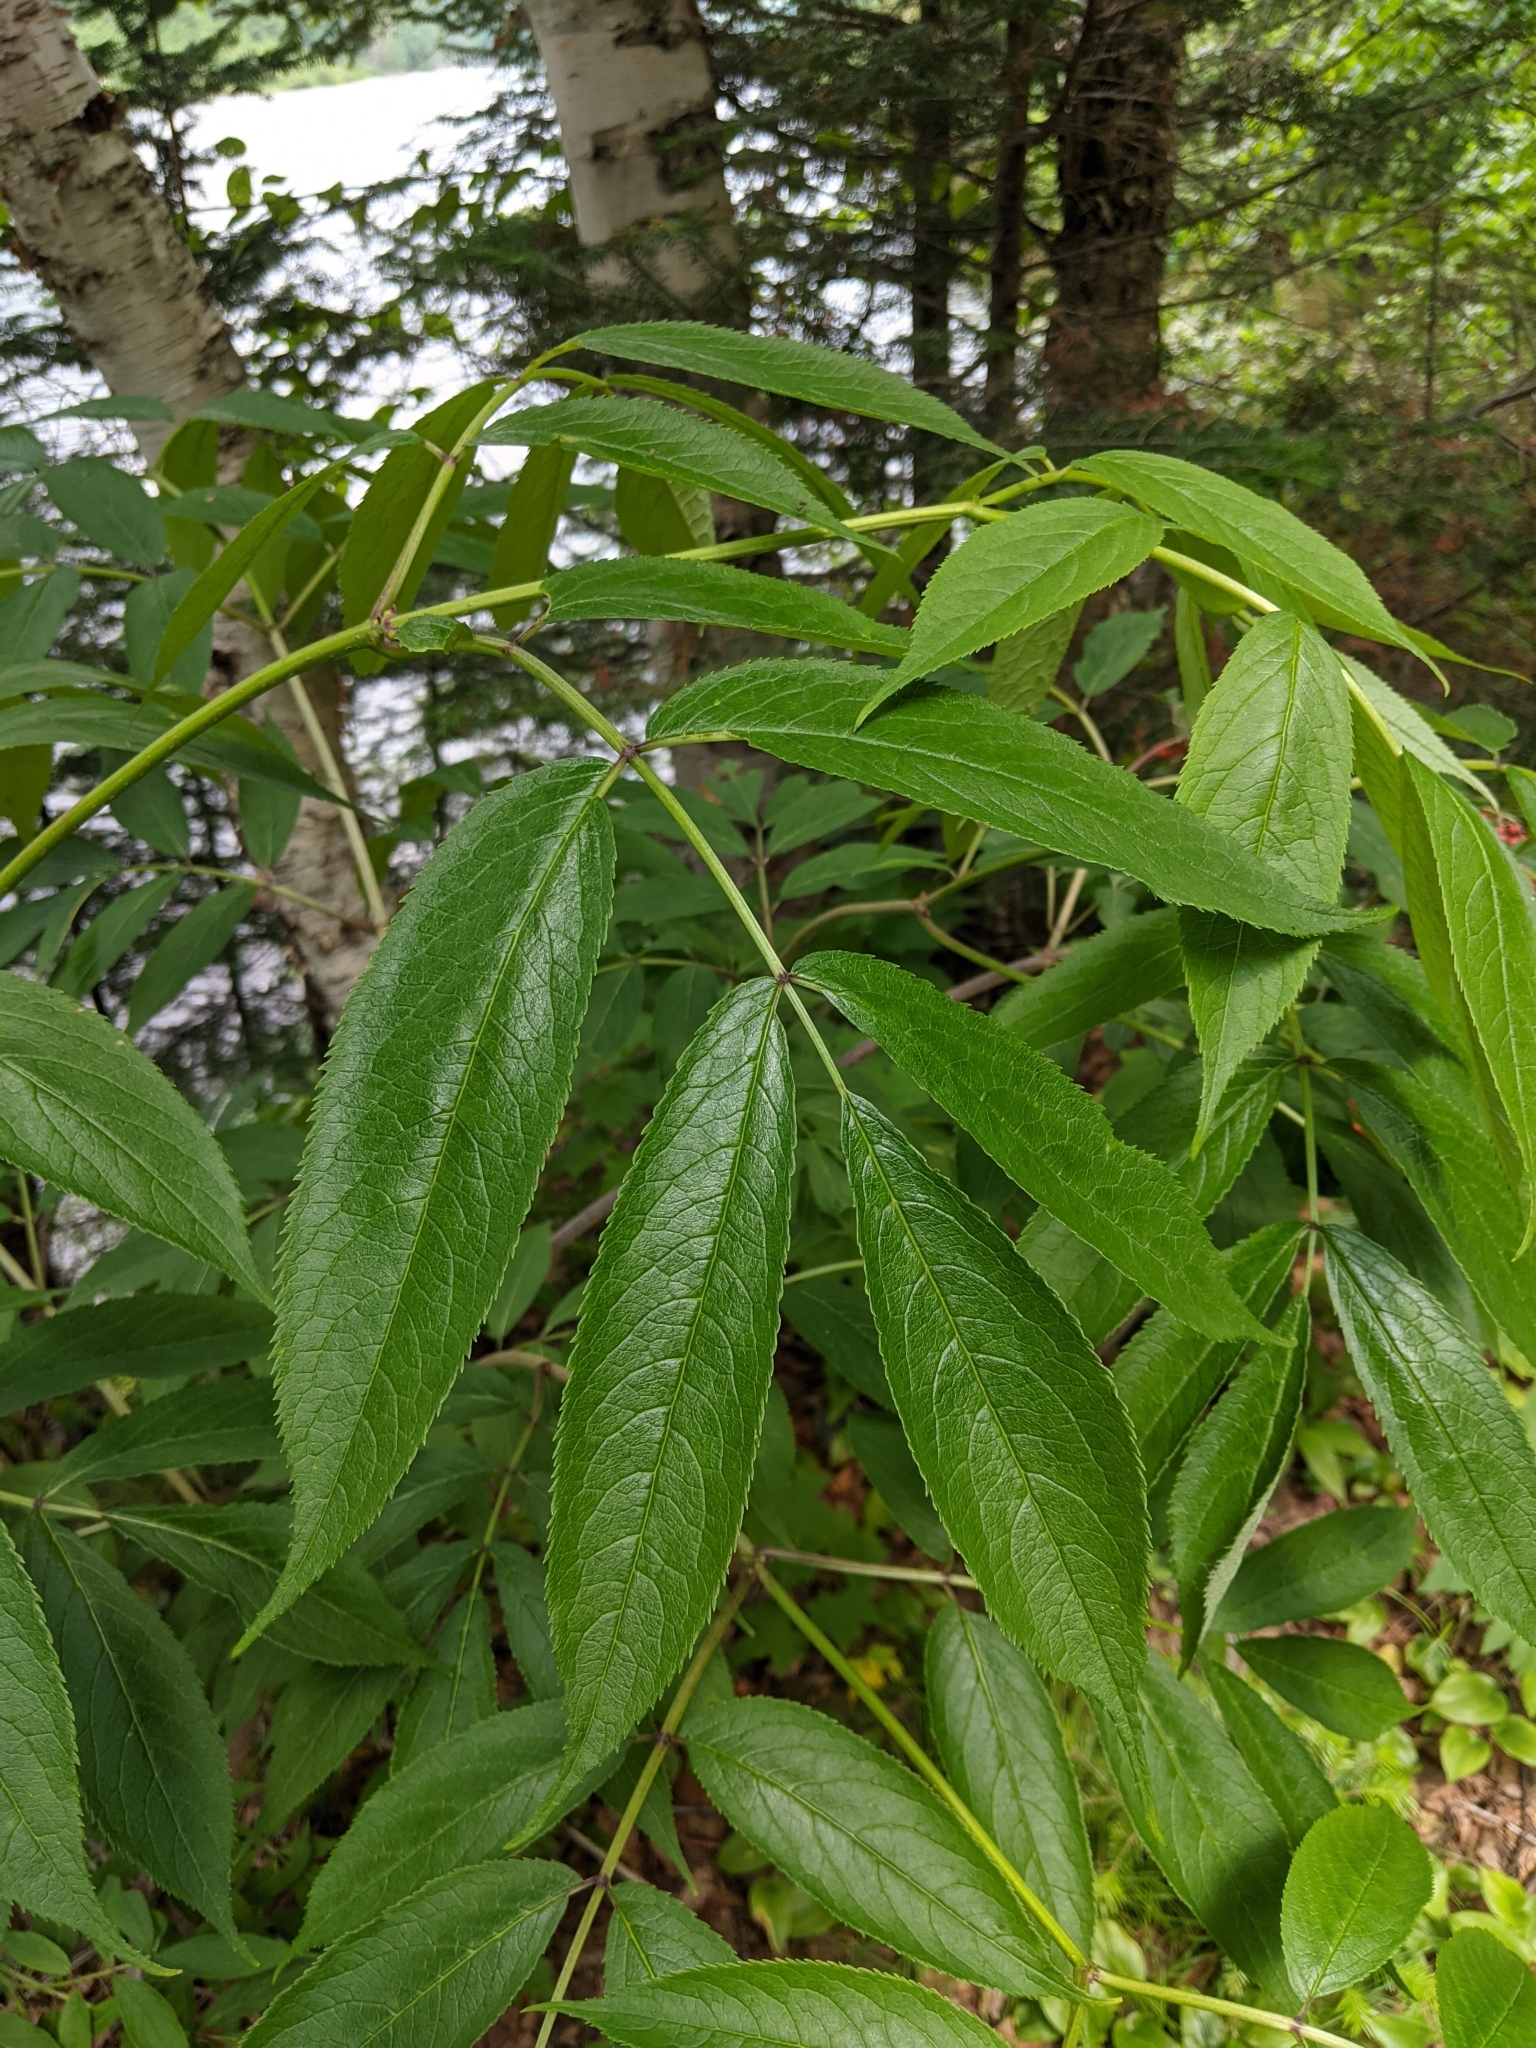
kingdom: Plantae
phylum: Tracheophyta
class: Magnoliopsida
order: Dipsacales
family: Viburnaceae
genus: Sambucus
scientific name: Sambucus racemosa
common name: Red-berried elder
